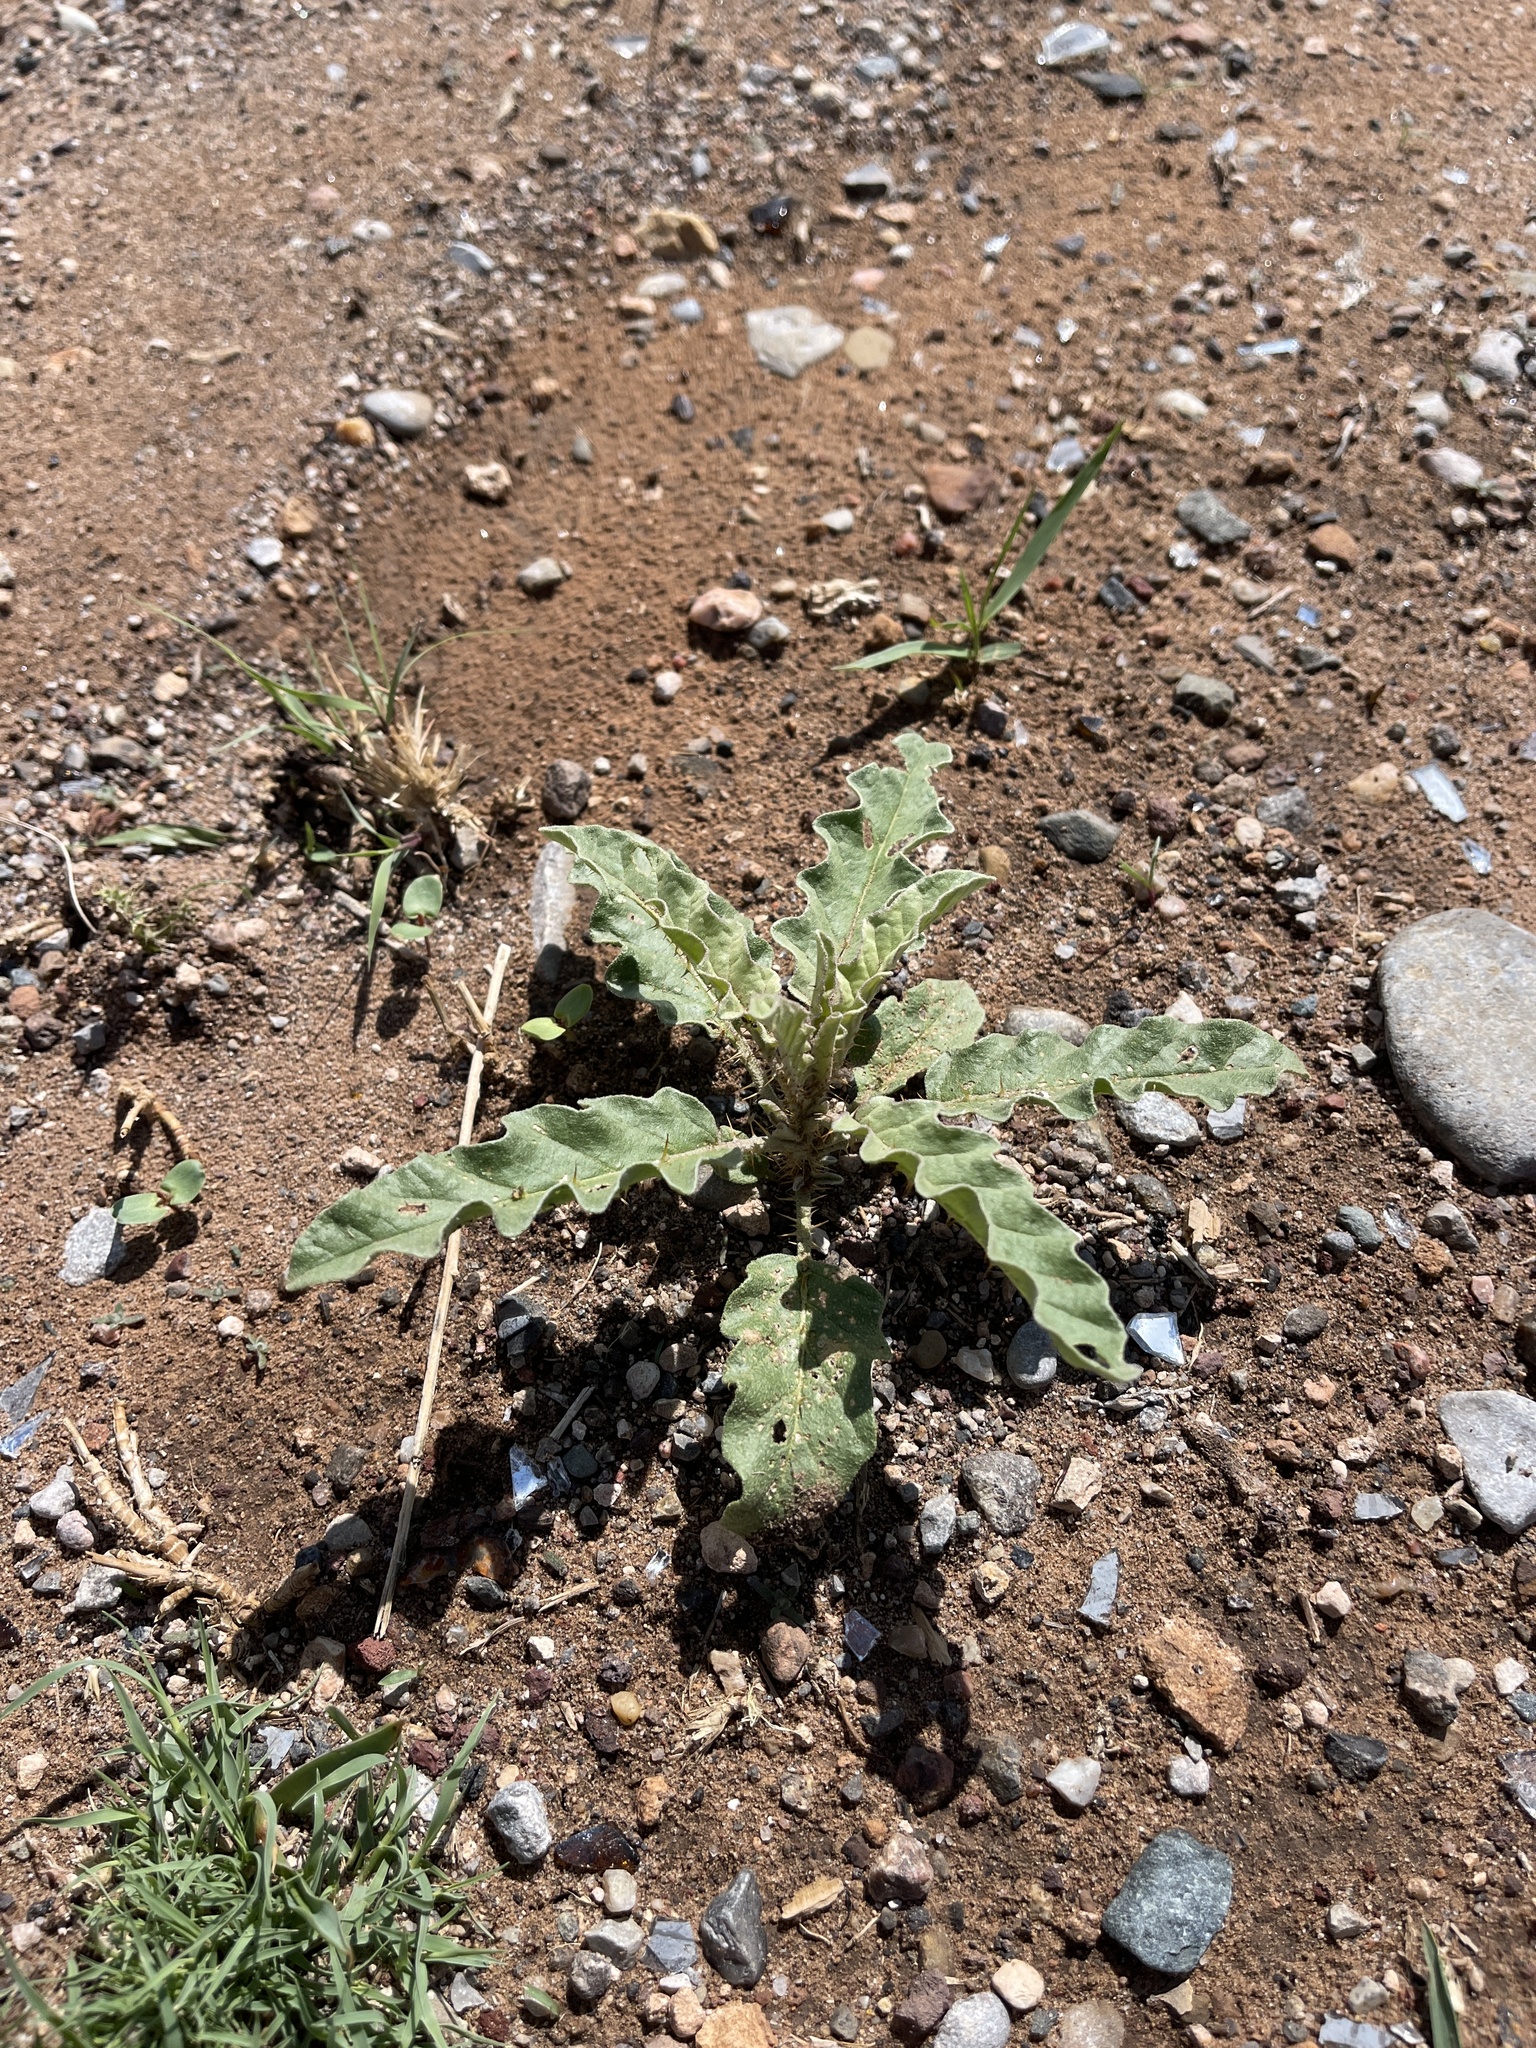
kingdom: Plantae
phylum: Tracheophyta
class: Magnoliopsida
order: Solanales
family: Solanaceae
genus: Solanum
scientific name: Solanum elaeagnifolium
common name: Silverleaf nightshade
